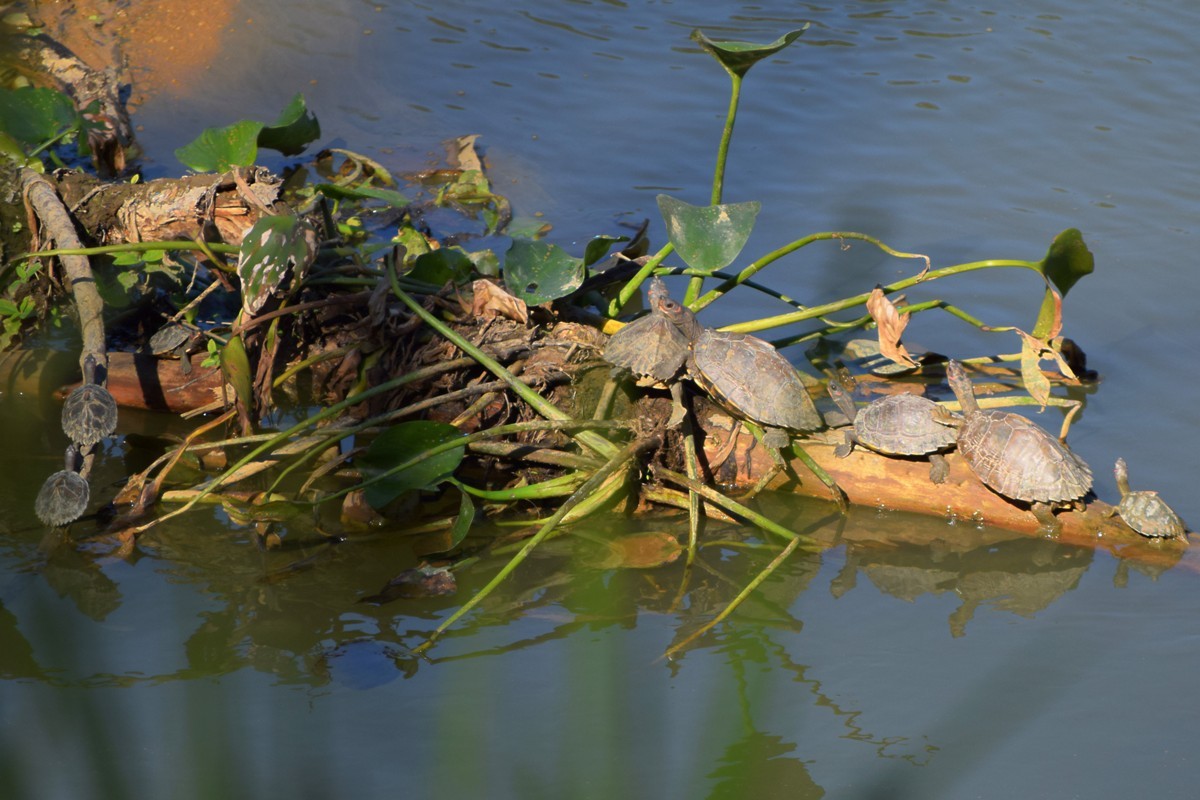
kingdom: Animalia
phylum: Chordata
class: Testudines
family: Geoemydidae
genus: Pangshura
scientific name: Pangshura sylhetensis
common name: Assam roofed turtle
